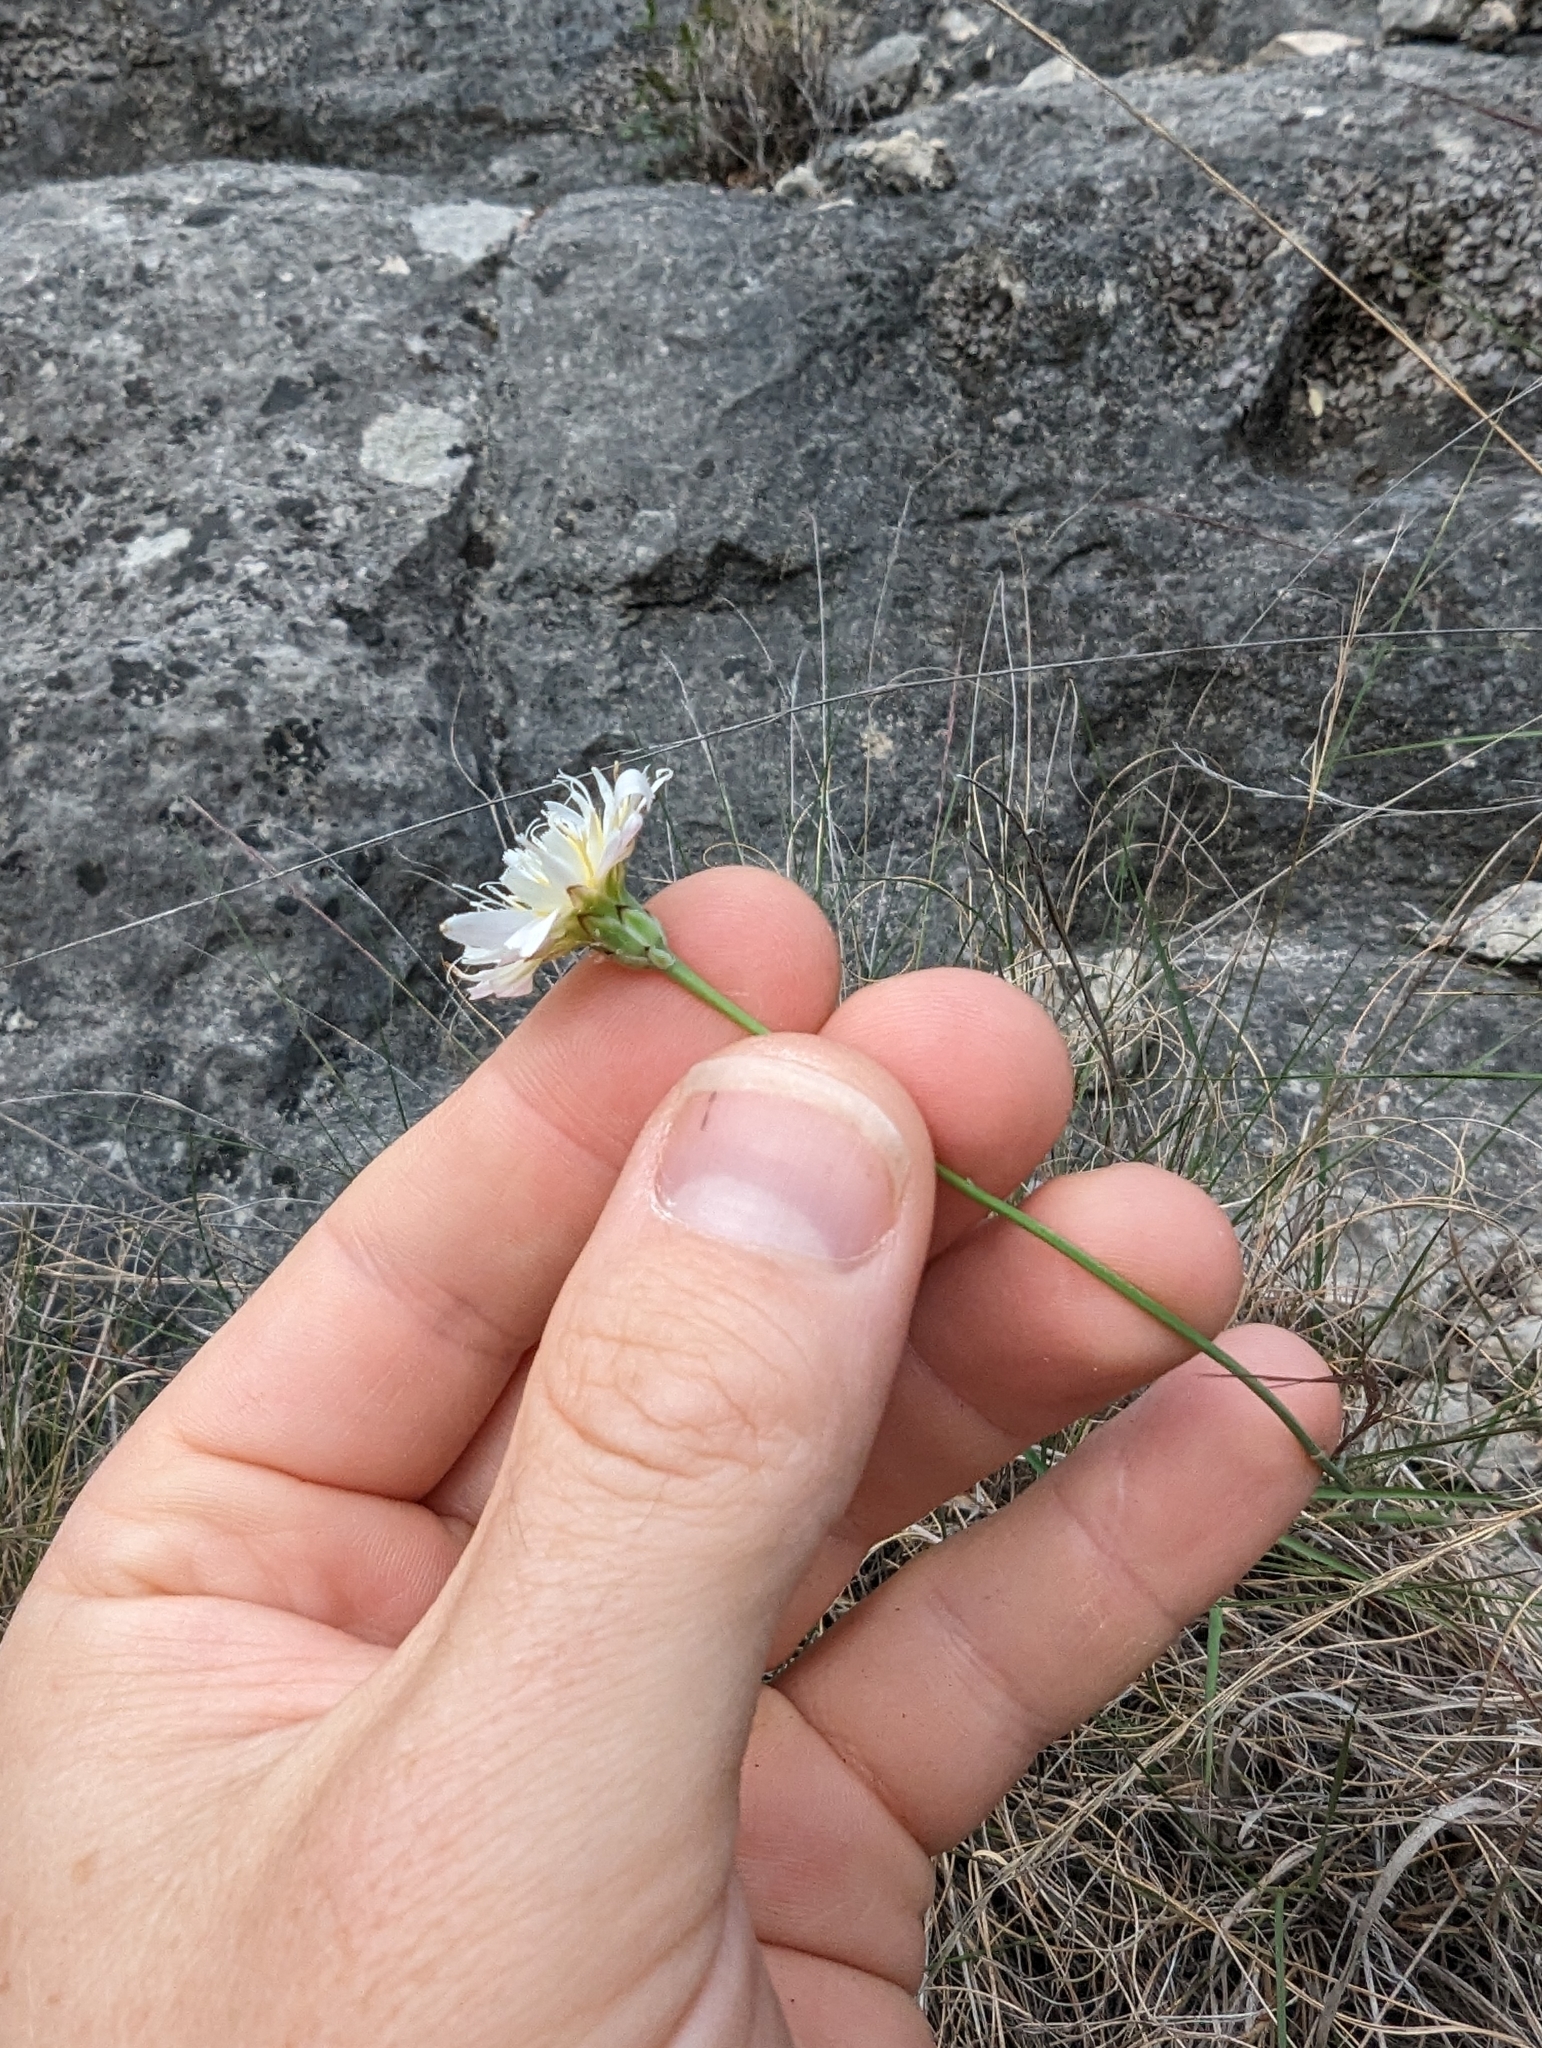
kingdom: Plantae
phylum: Tracheophyta
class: Magnoliopsida
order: Asterales
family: Asteraceae
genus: Pinaropappus
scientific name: Pinaropappus roseus
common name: Rock-lettuce
